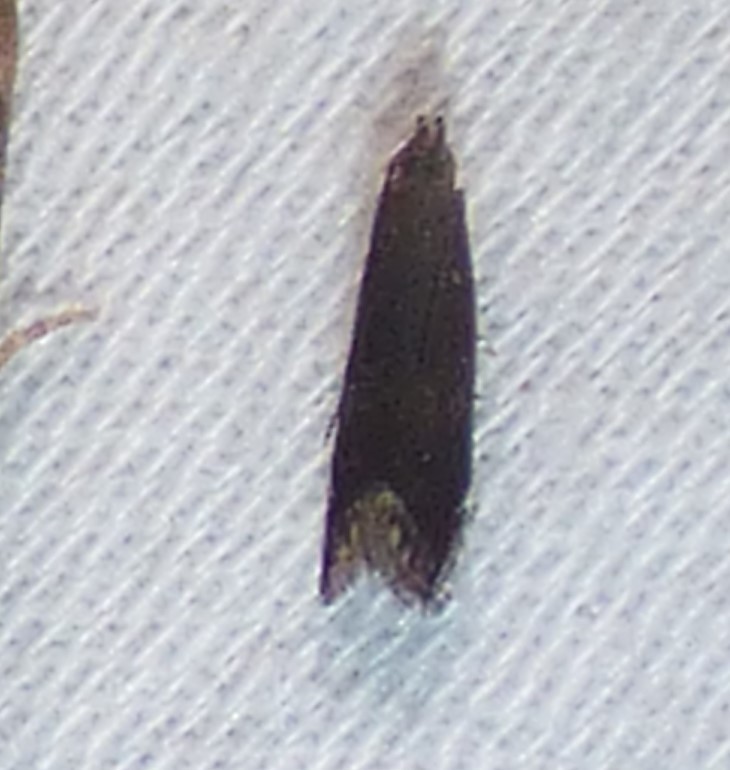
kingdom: Animalia
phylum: Arthropoda
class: Insecta
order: Lepidoptera
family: Gelechiidae
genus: Untomia
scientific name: Untomia albistrigella
